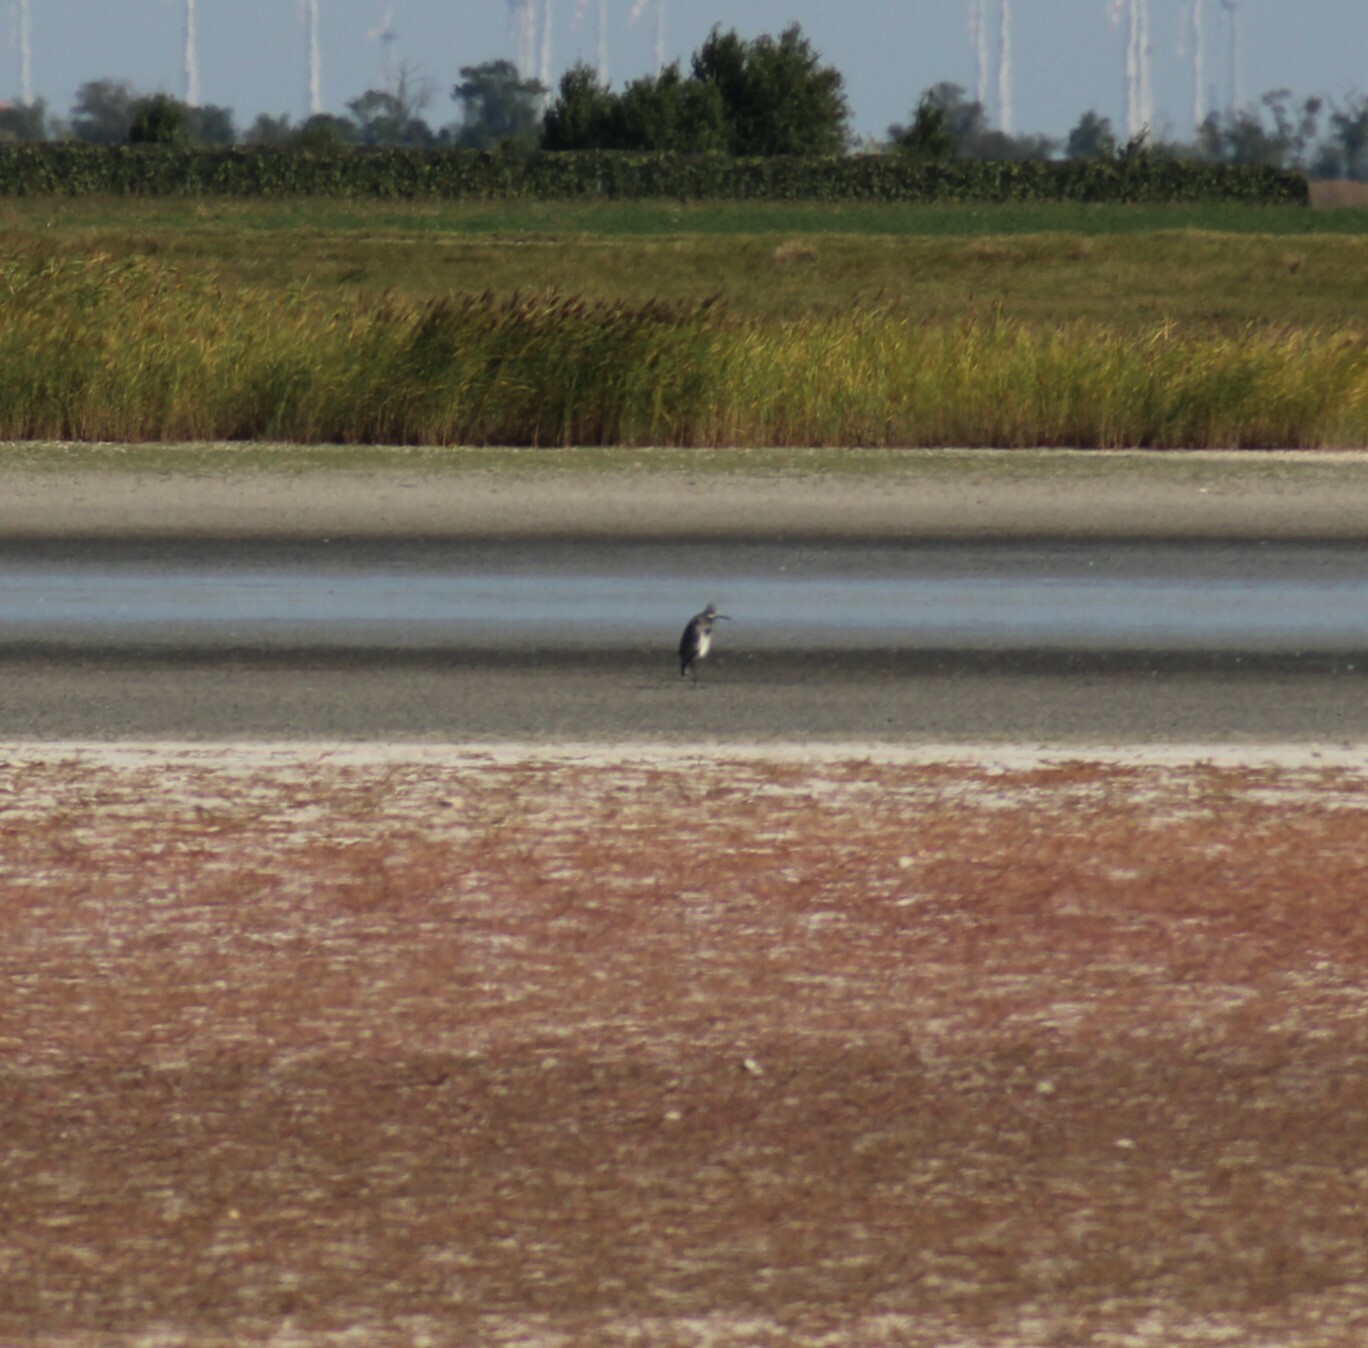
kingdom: Animalia
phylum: Chordata
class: Aves
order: Pelecaniformes
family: Ardeidae
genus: Ardea
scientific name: Ardea cinerea
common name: Grey heron
